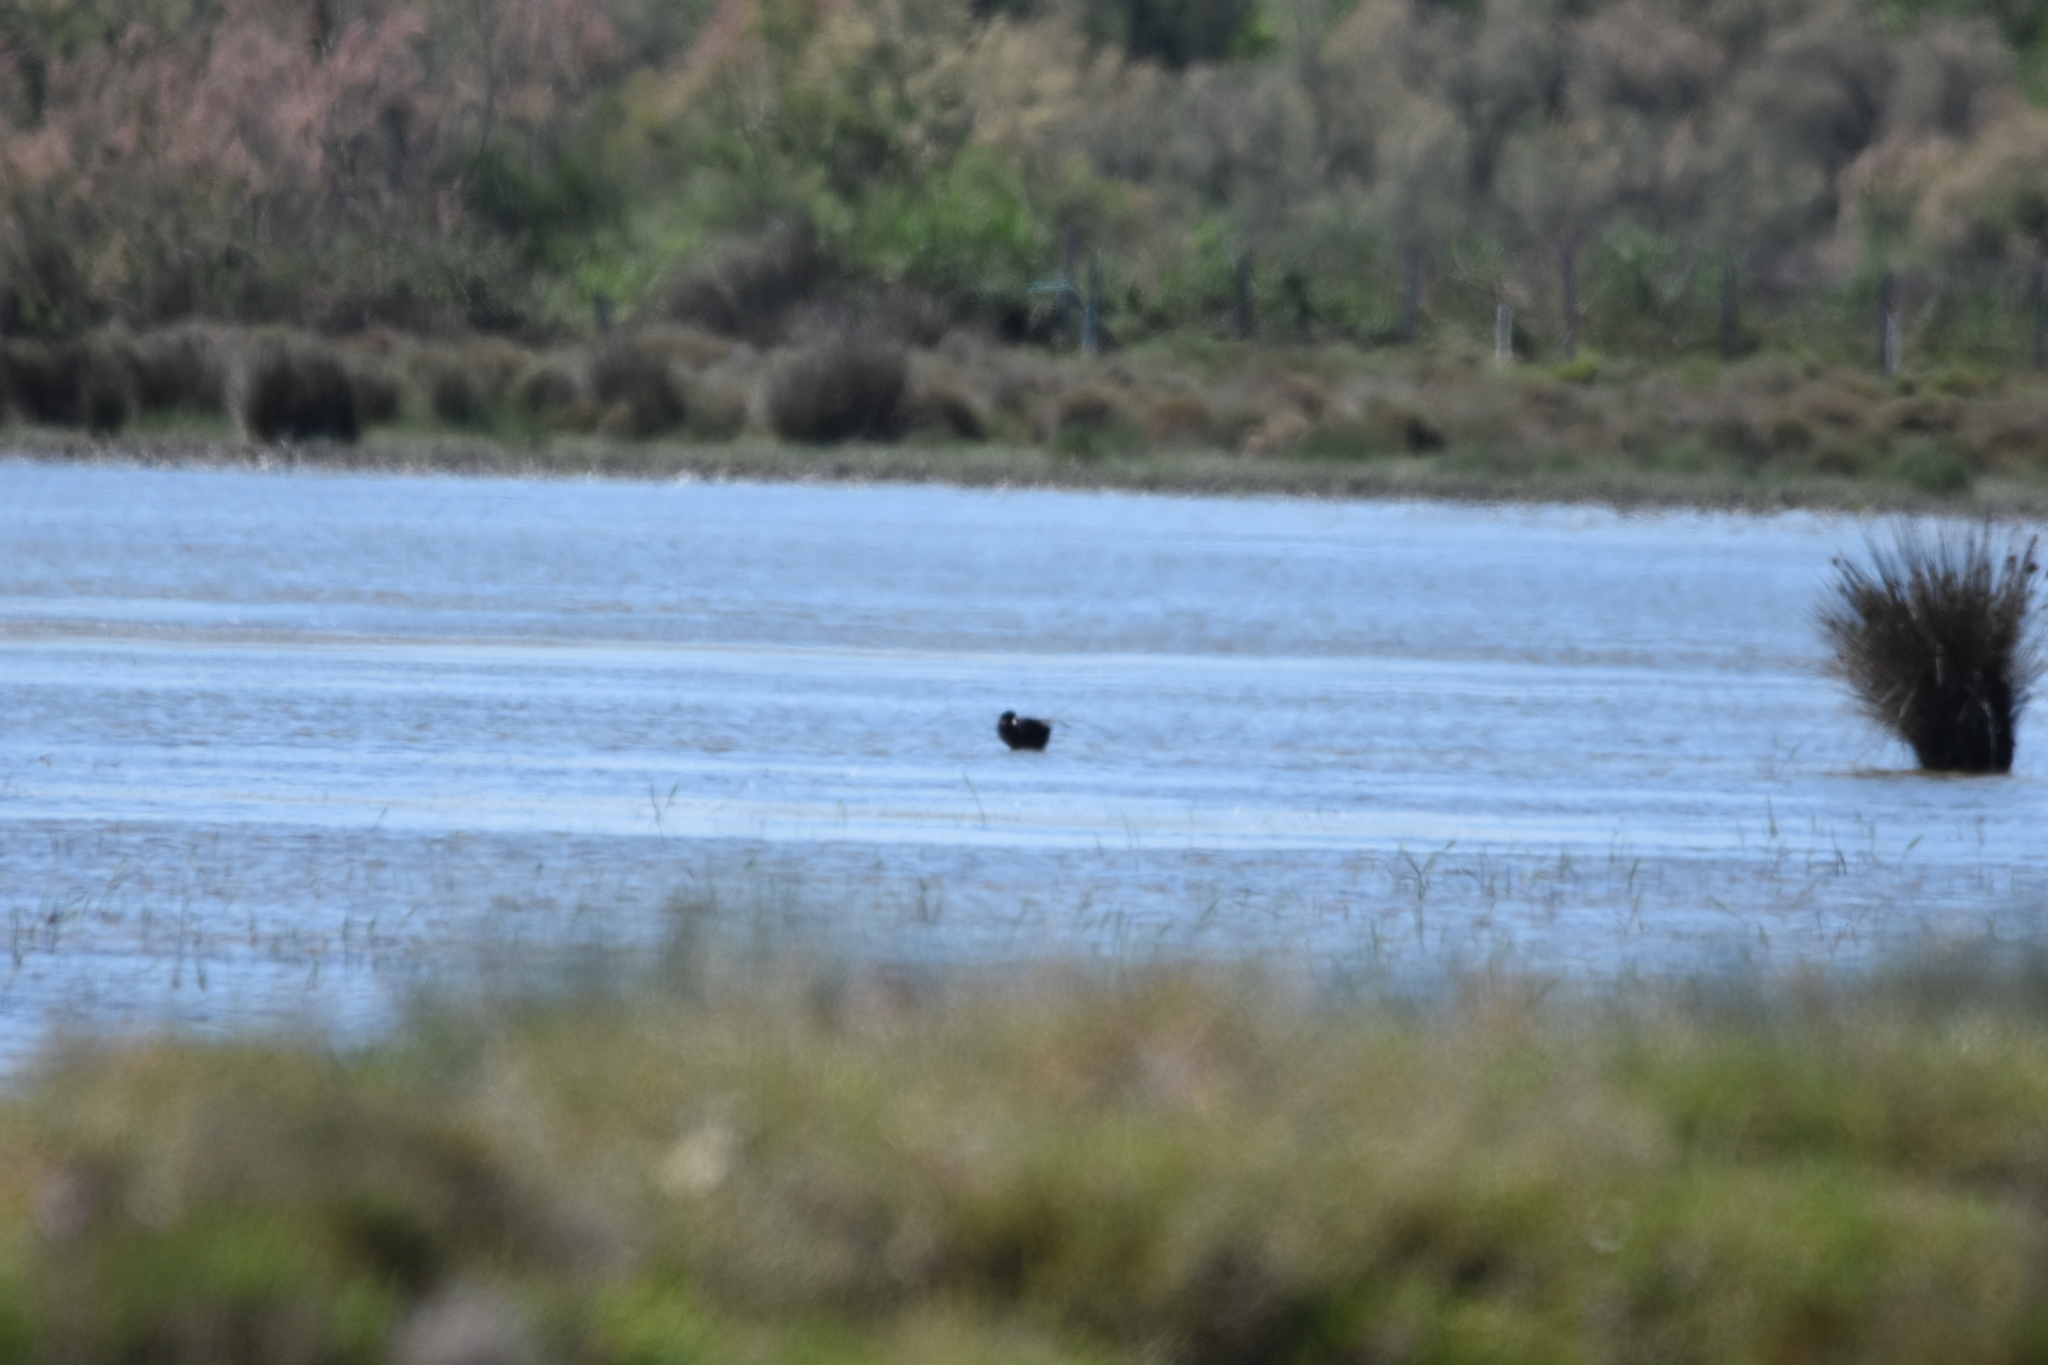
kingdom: Animalia
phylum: Chordata
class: Aves
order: Gruiformes
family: Rallidae
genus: Fulica
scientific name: Fulica atra
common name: Eurasian coot
